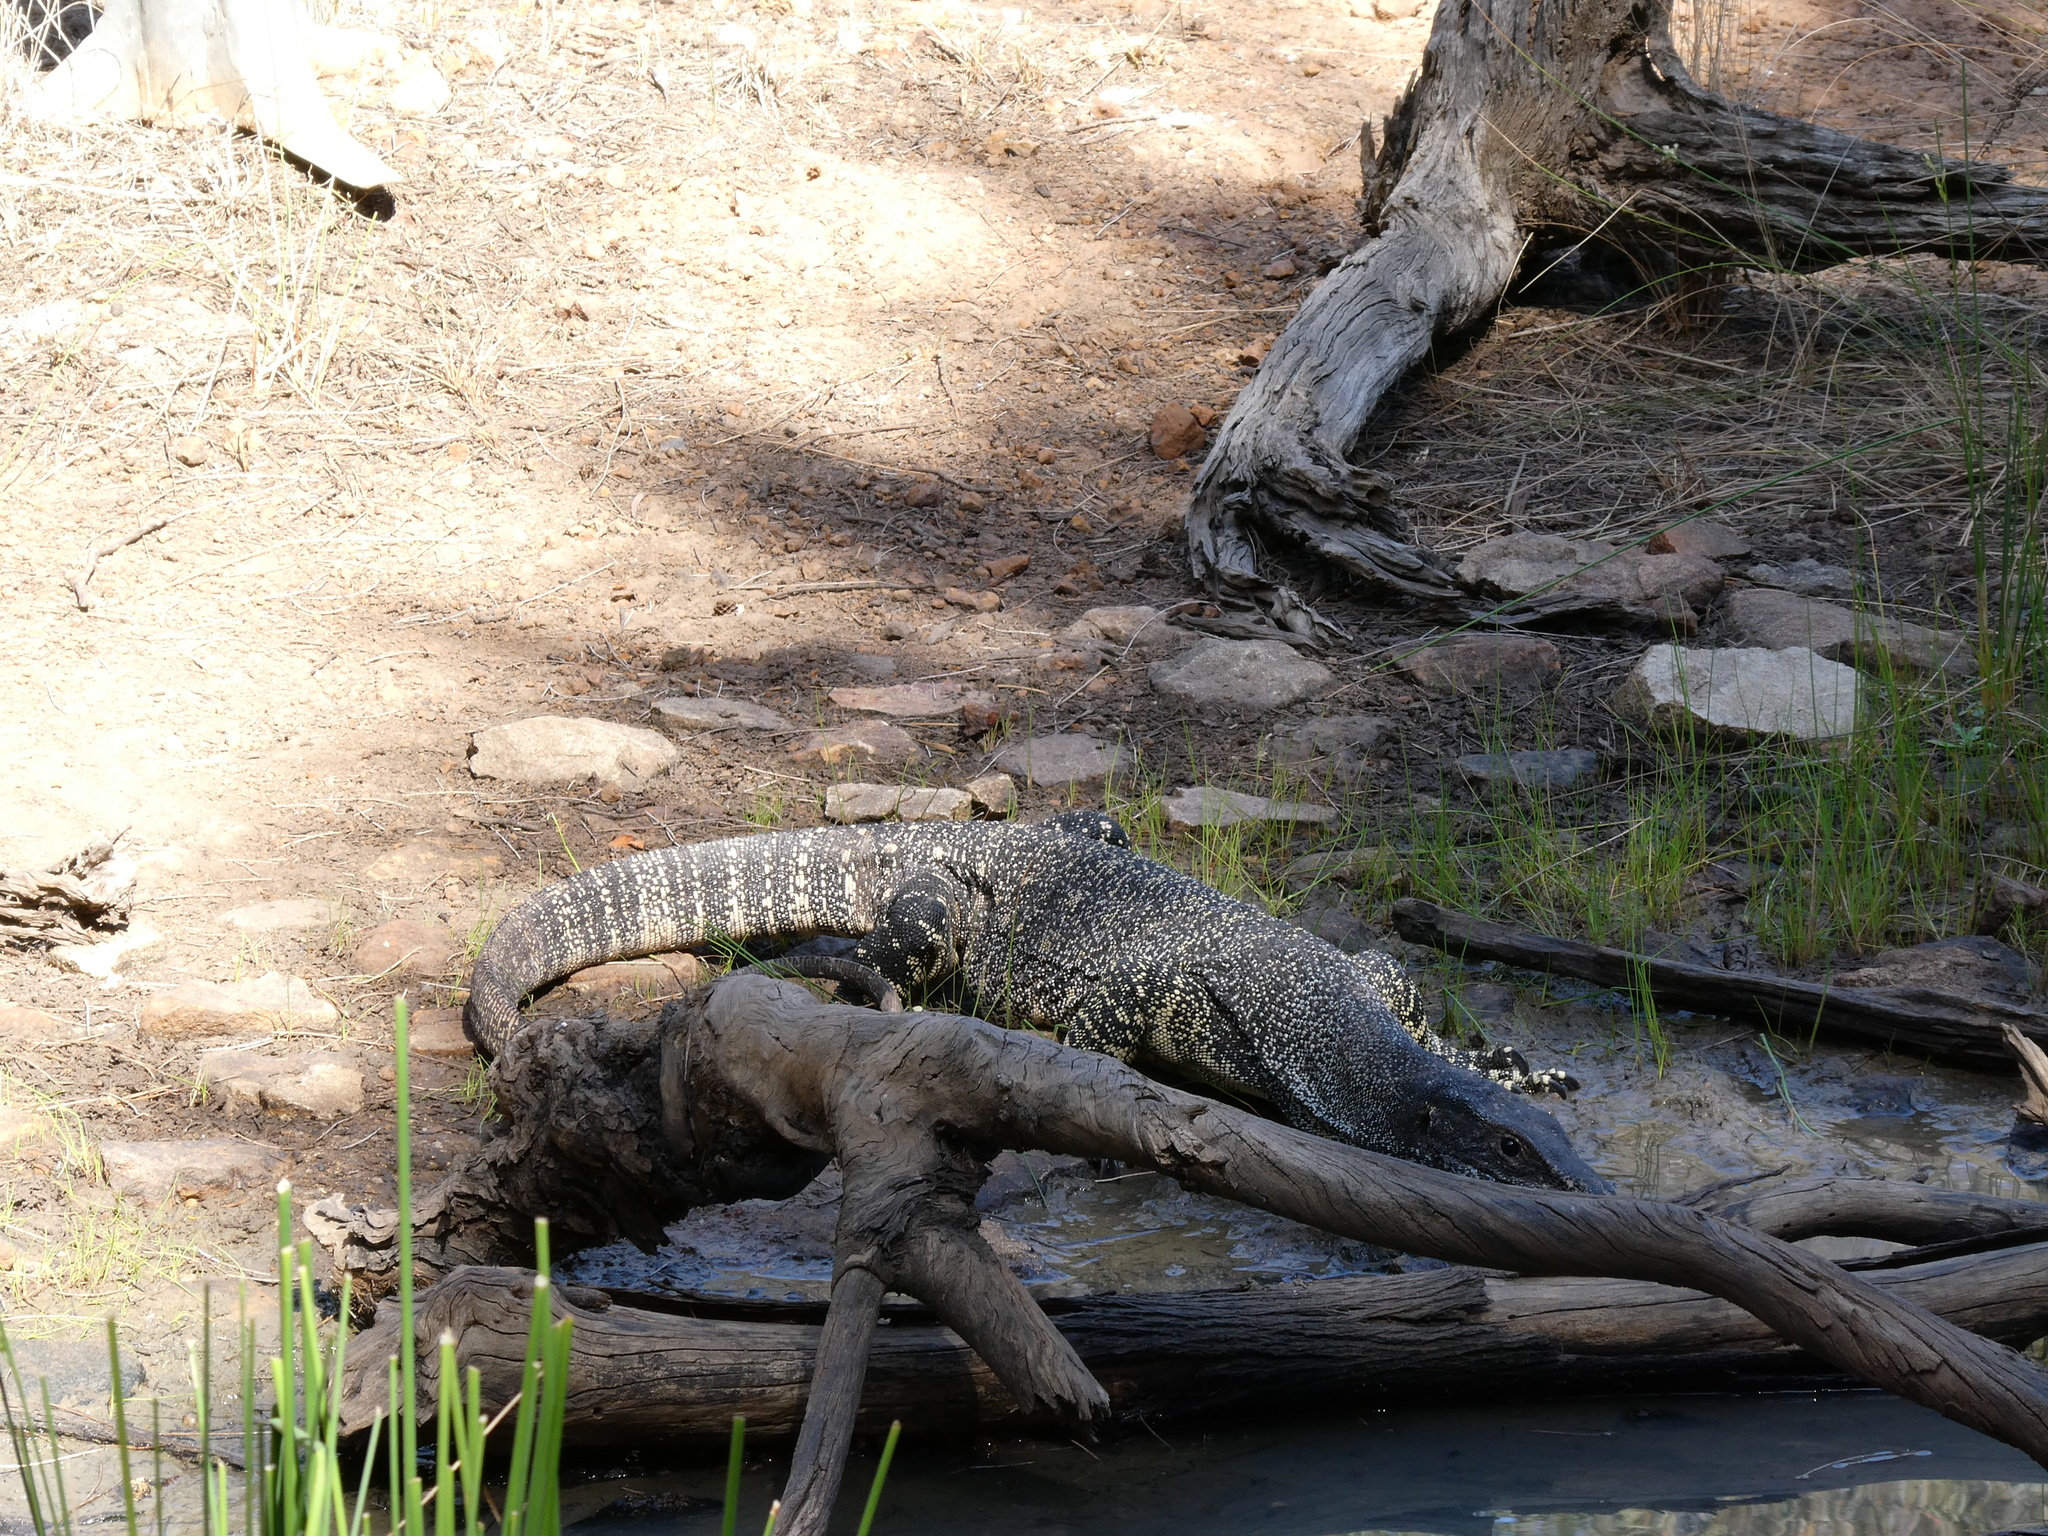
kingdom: Animalia
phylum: Chordata
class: Squamata
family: Varanidae
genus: Varanus
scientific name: Varanus varius
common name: Lace monitor
